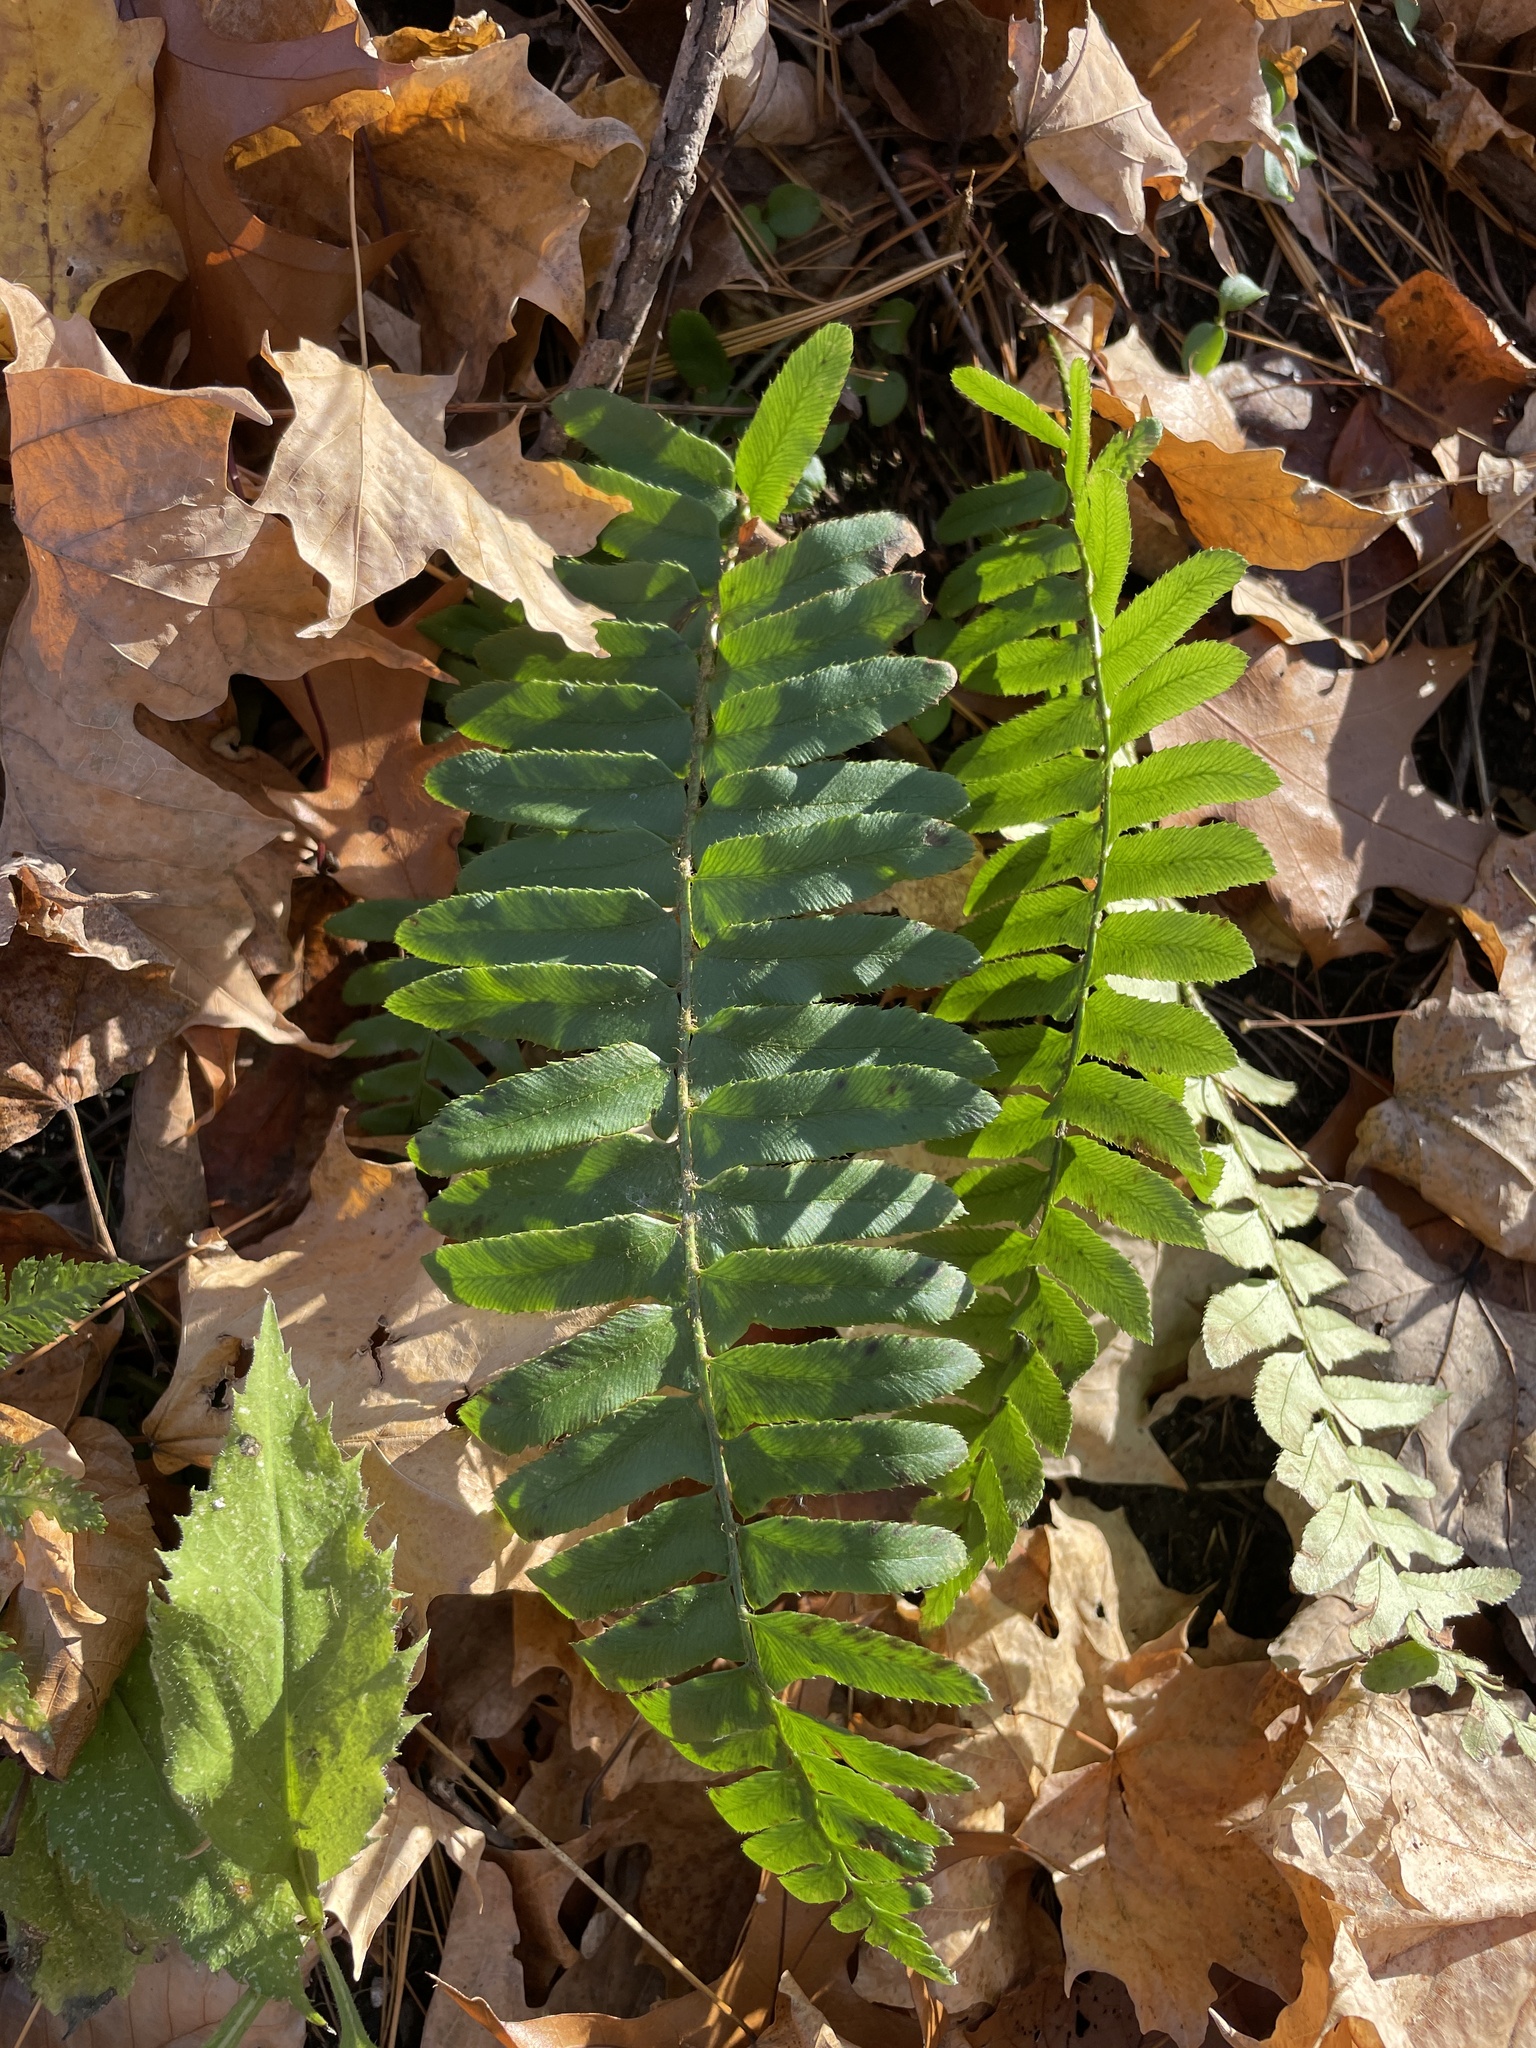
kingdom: Plantae
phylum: Tracheophyta
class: Polypodiopsida
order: Polypodiales
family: Dryopteridaceae
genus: Polystichum
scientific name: Polystichum acrostichoides
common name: Christmas fern
